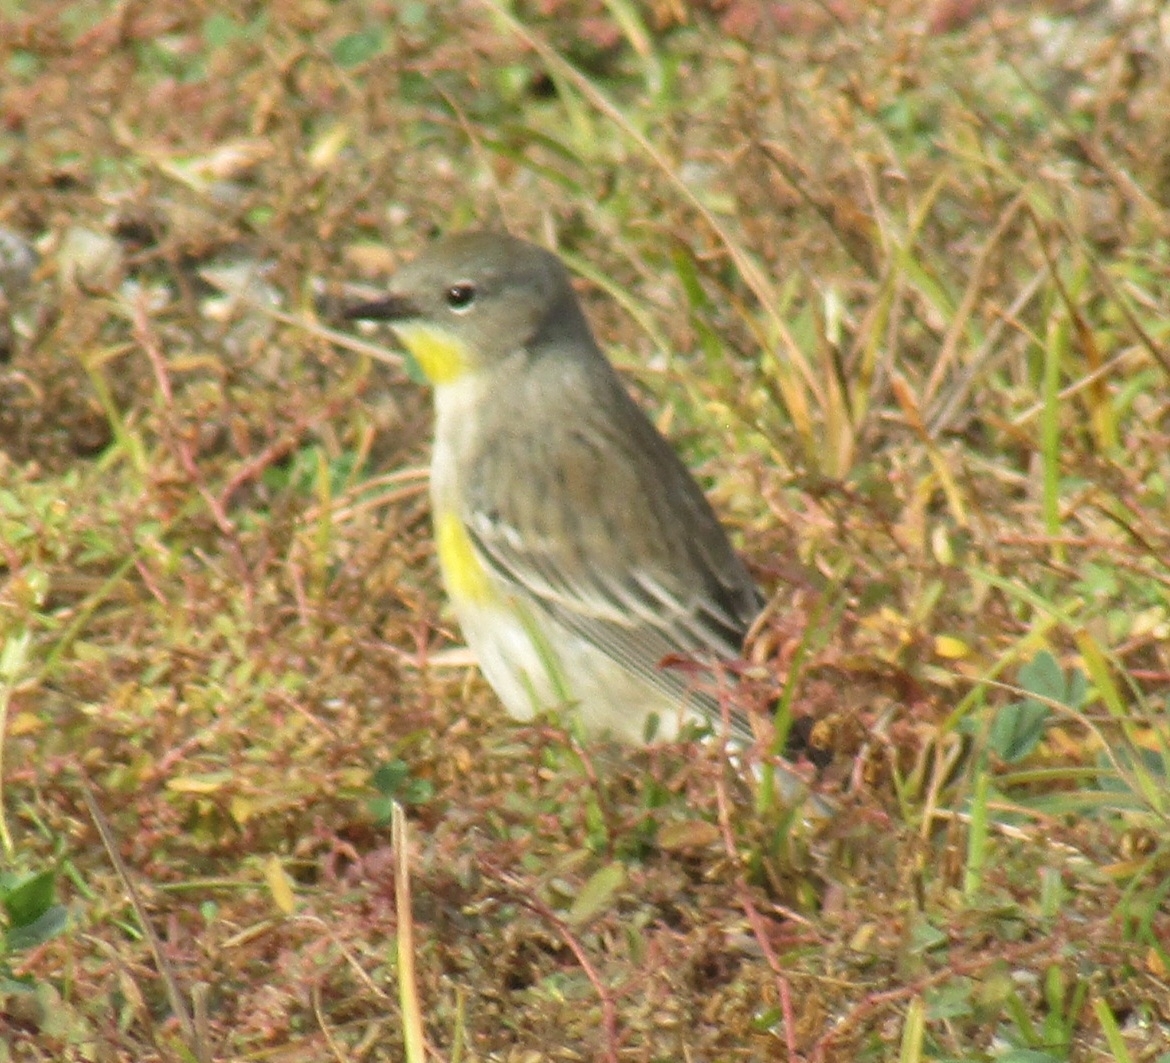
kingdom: Animalia
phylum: Chordata
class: Aves
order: Passeriformes
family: Parulidae
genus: Setophaga
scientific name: Setophaga coronata
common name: Myrtle warbler
